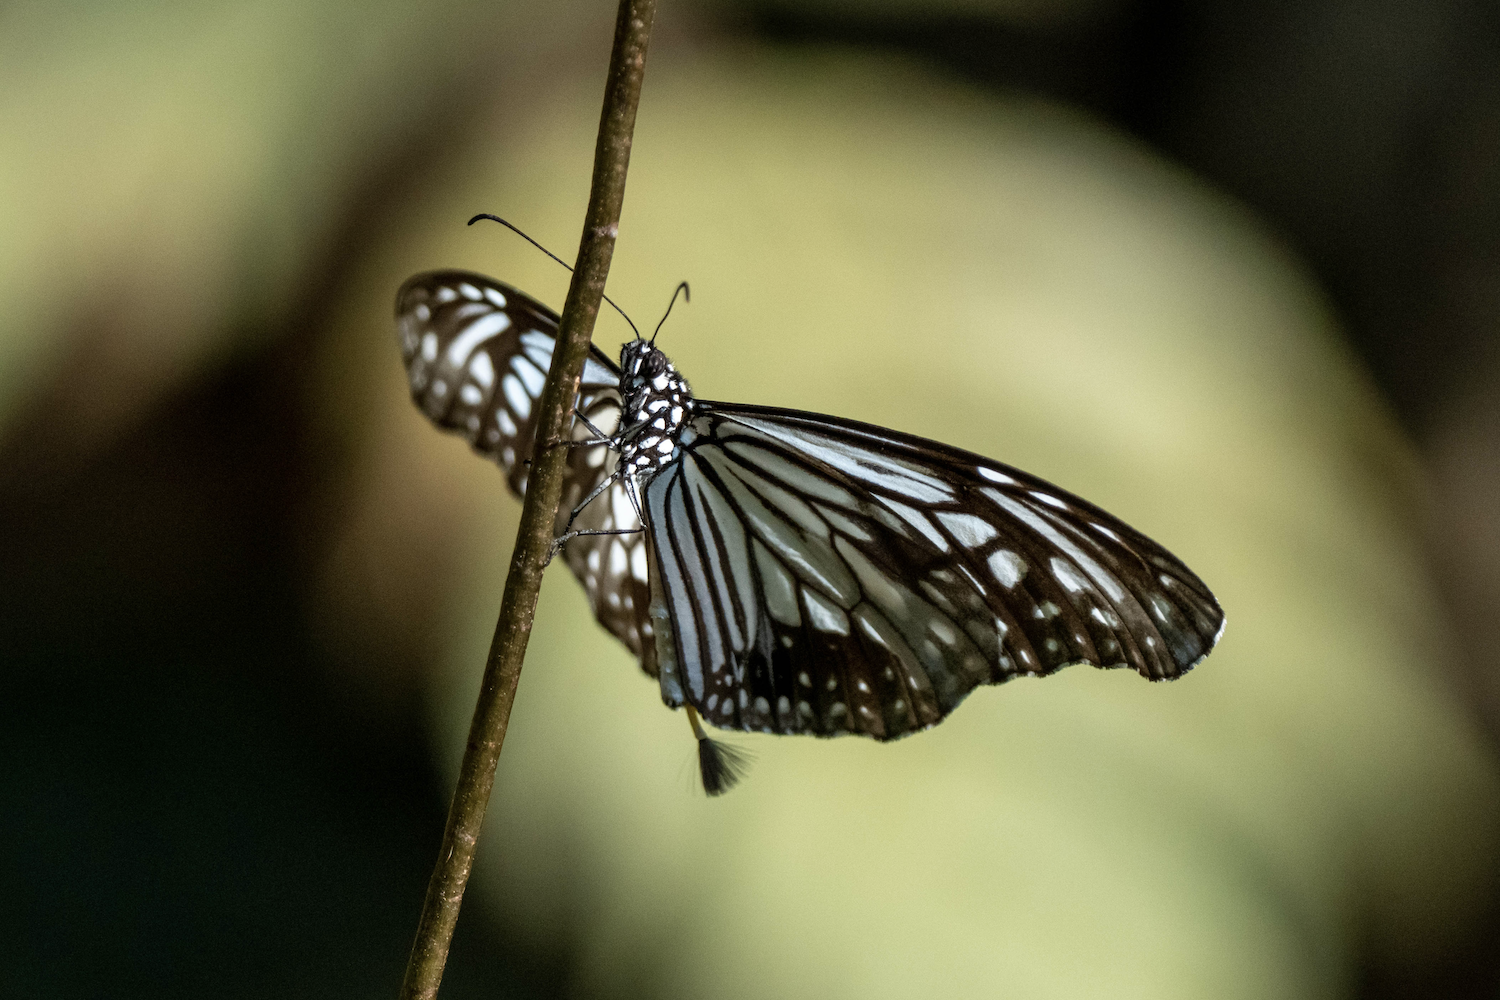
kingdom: Animalia
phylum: Arthropoda
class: Insecta
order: Lepidoptera
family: Nymphalidae
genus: Parantica
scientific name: Parantica aglea
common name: Glassy tiger
